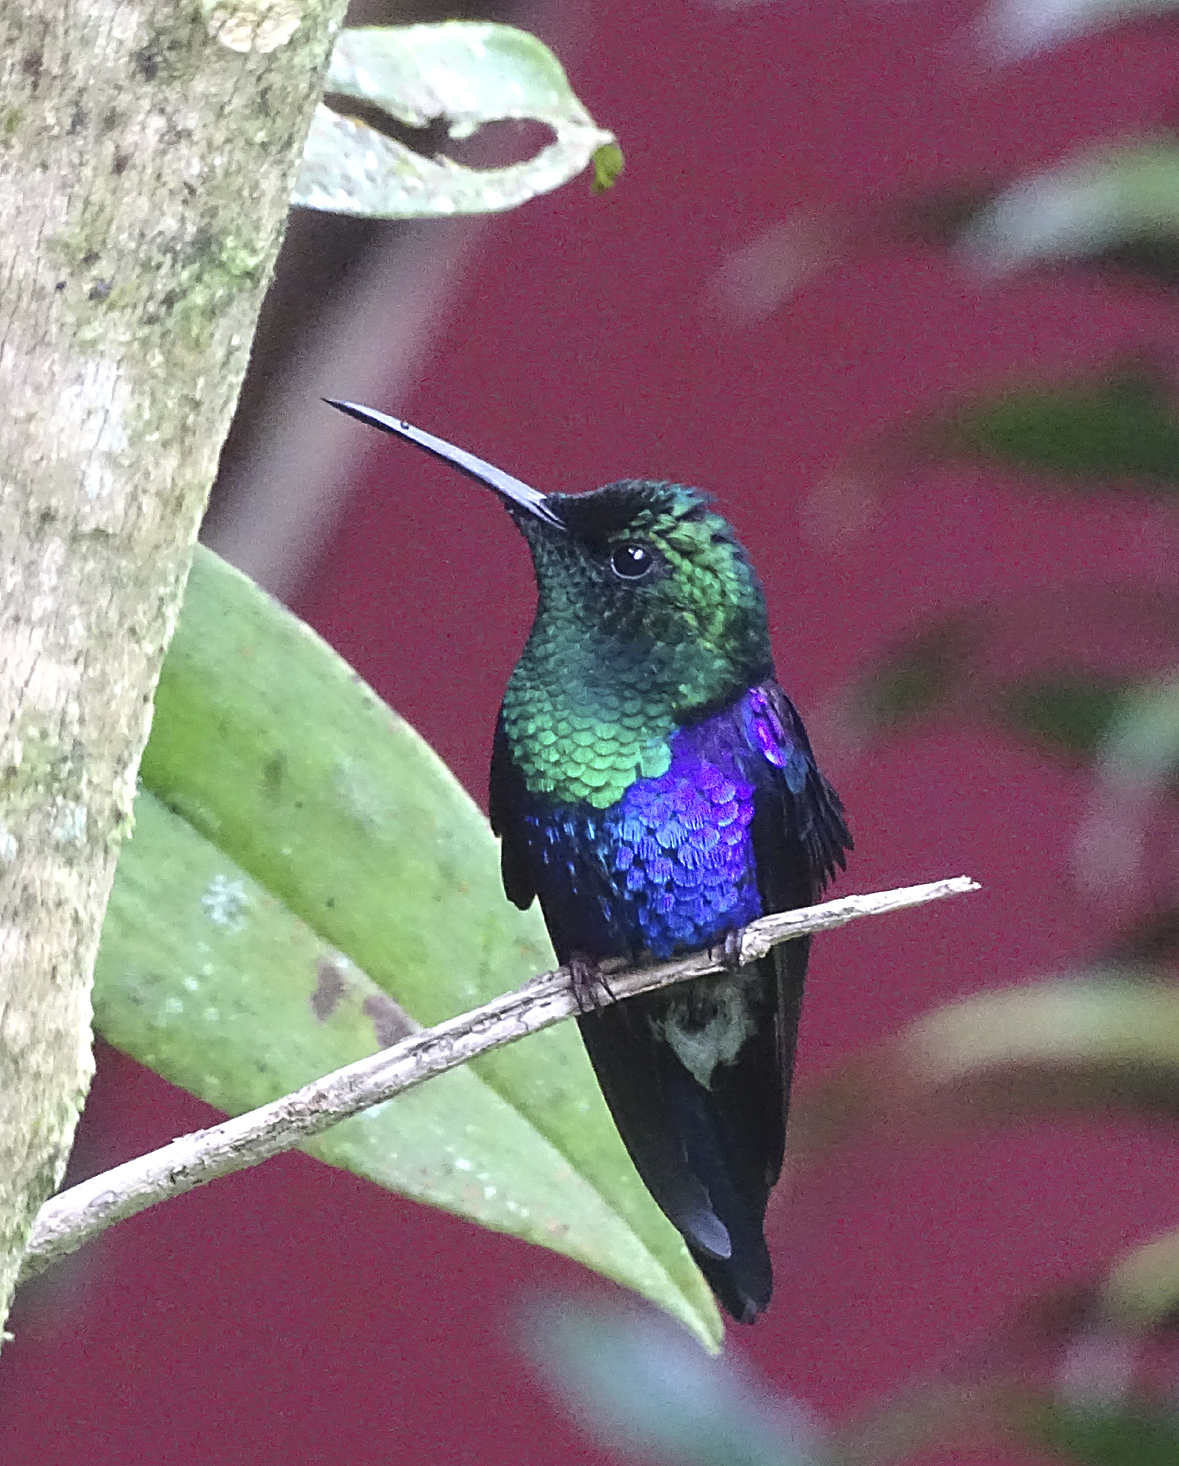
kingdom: Animalia
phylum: Chordata
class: Aves
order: Apodiformes
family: Trochilidae
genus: Thalurania
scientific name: Thalurania colombica
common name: Crowned woodnymph
